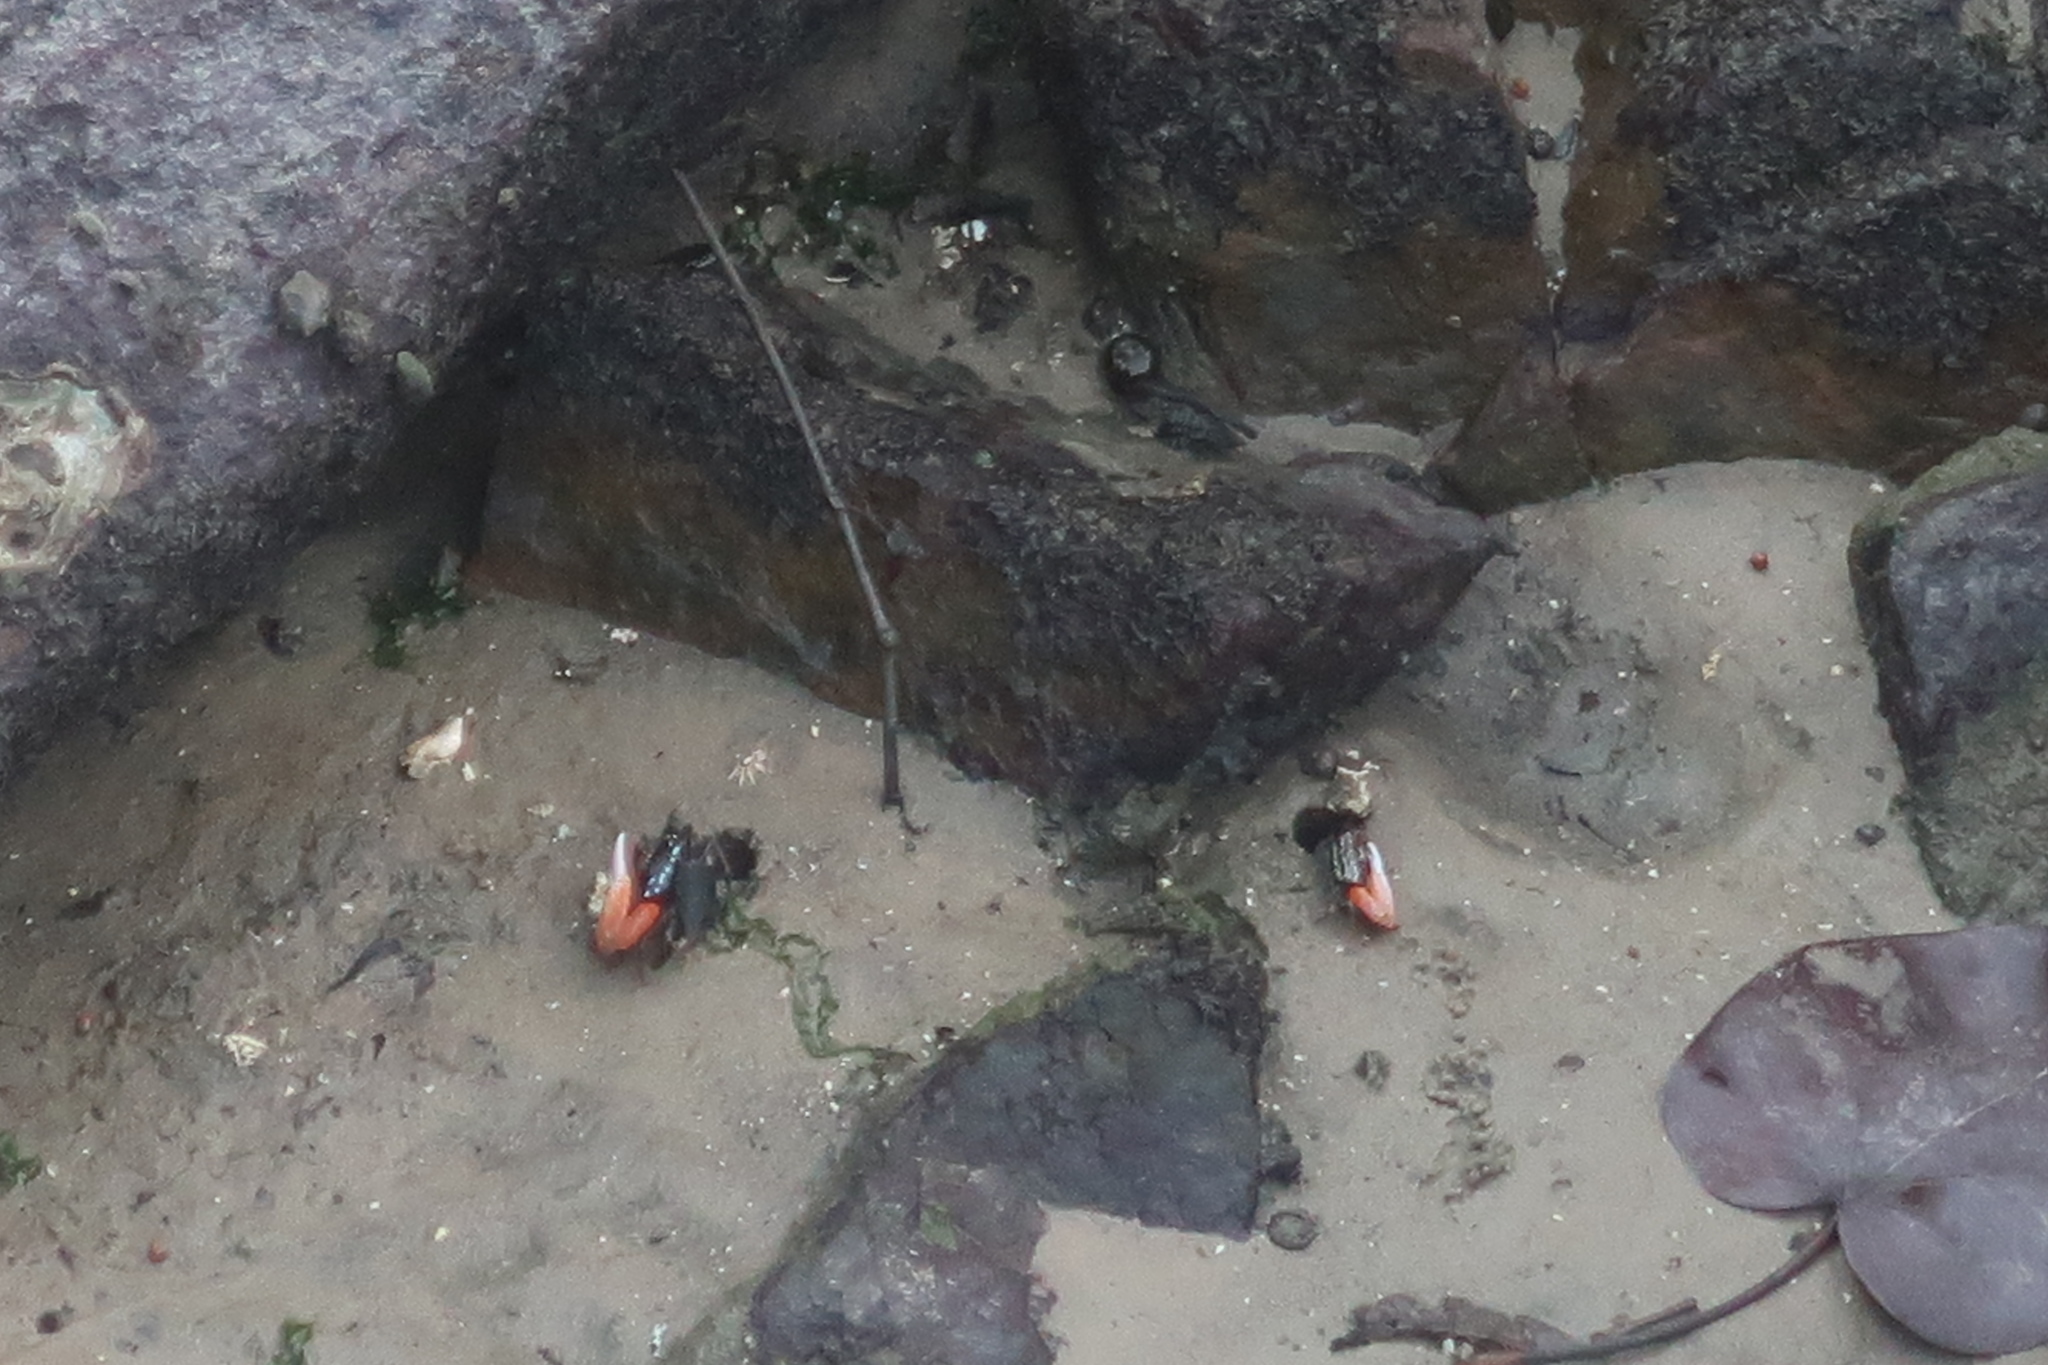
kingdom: Animalia
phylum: Arthropoda
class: Malacostraca
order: Decapoda
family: Ocypodidae
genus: Austruca
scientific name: Austruca annulipes
